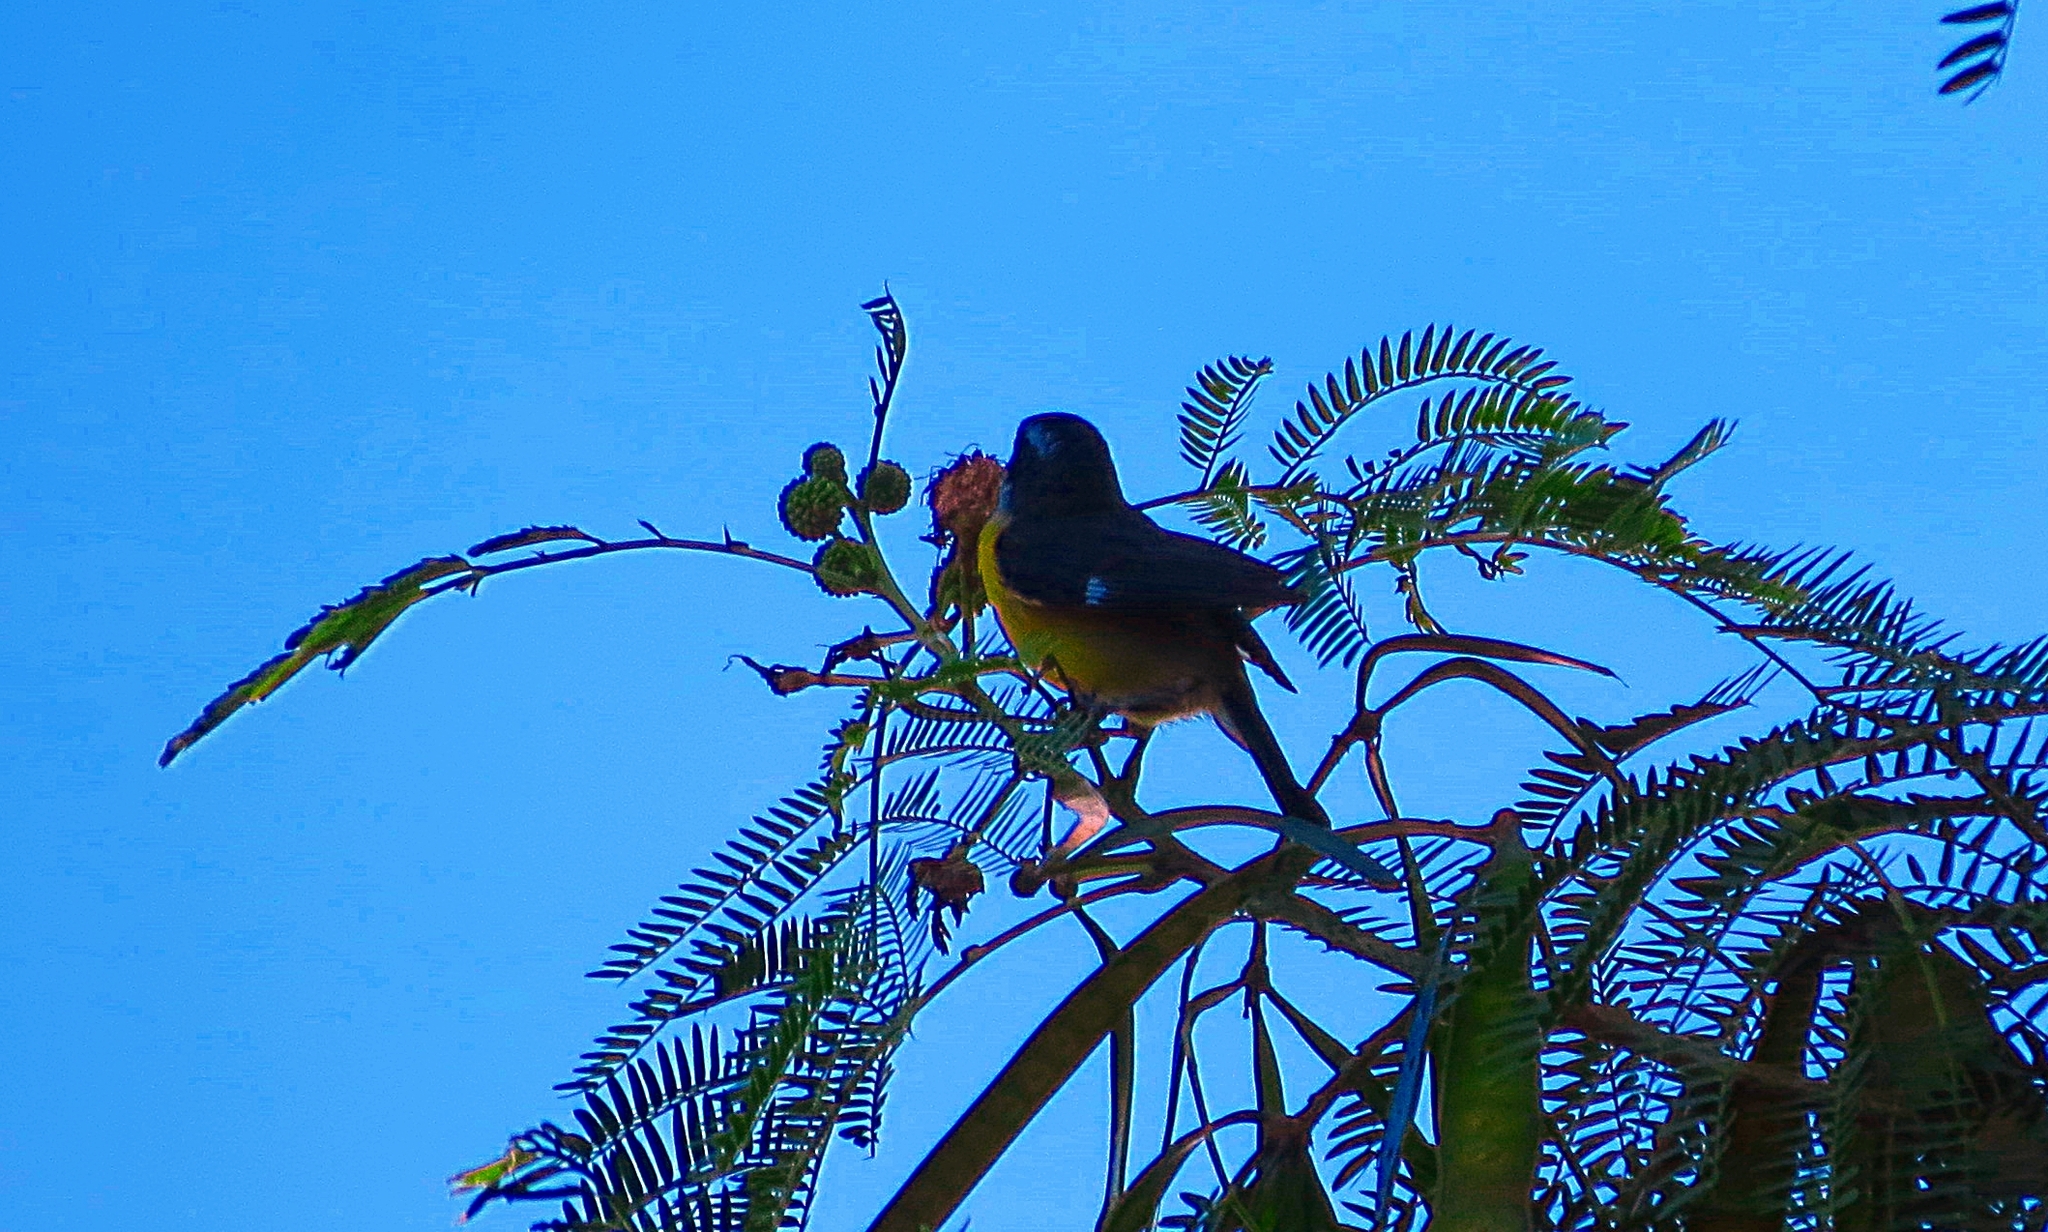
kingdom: Animalia
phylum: Chordata
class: Aves
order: Passeriformes
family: Thraupidae
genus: Coereba
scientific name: Coereba flaveola
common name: Bananaquit
